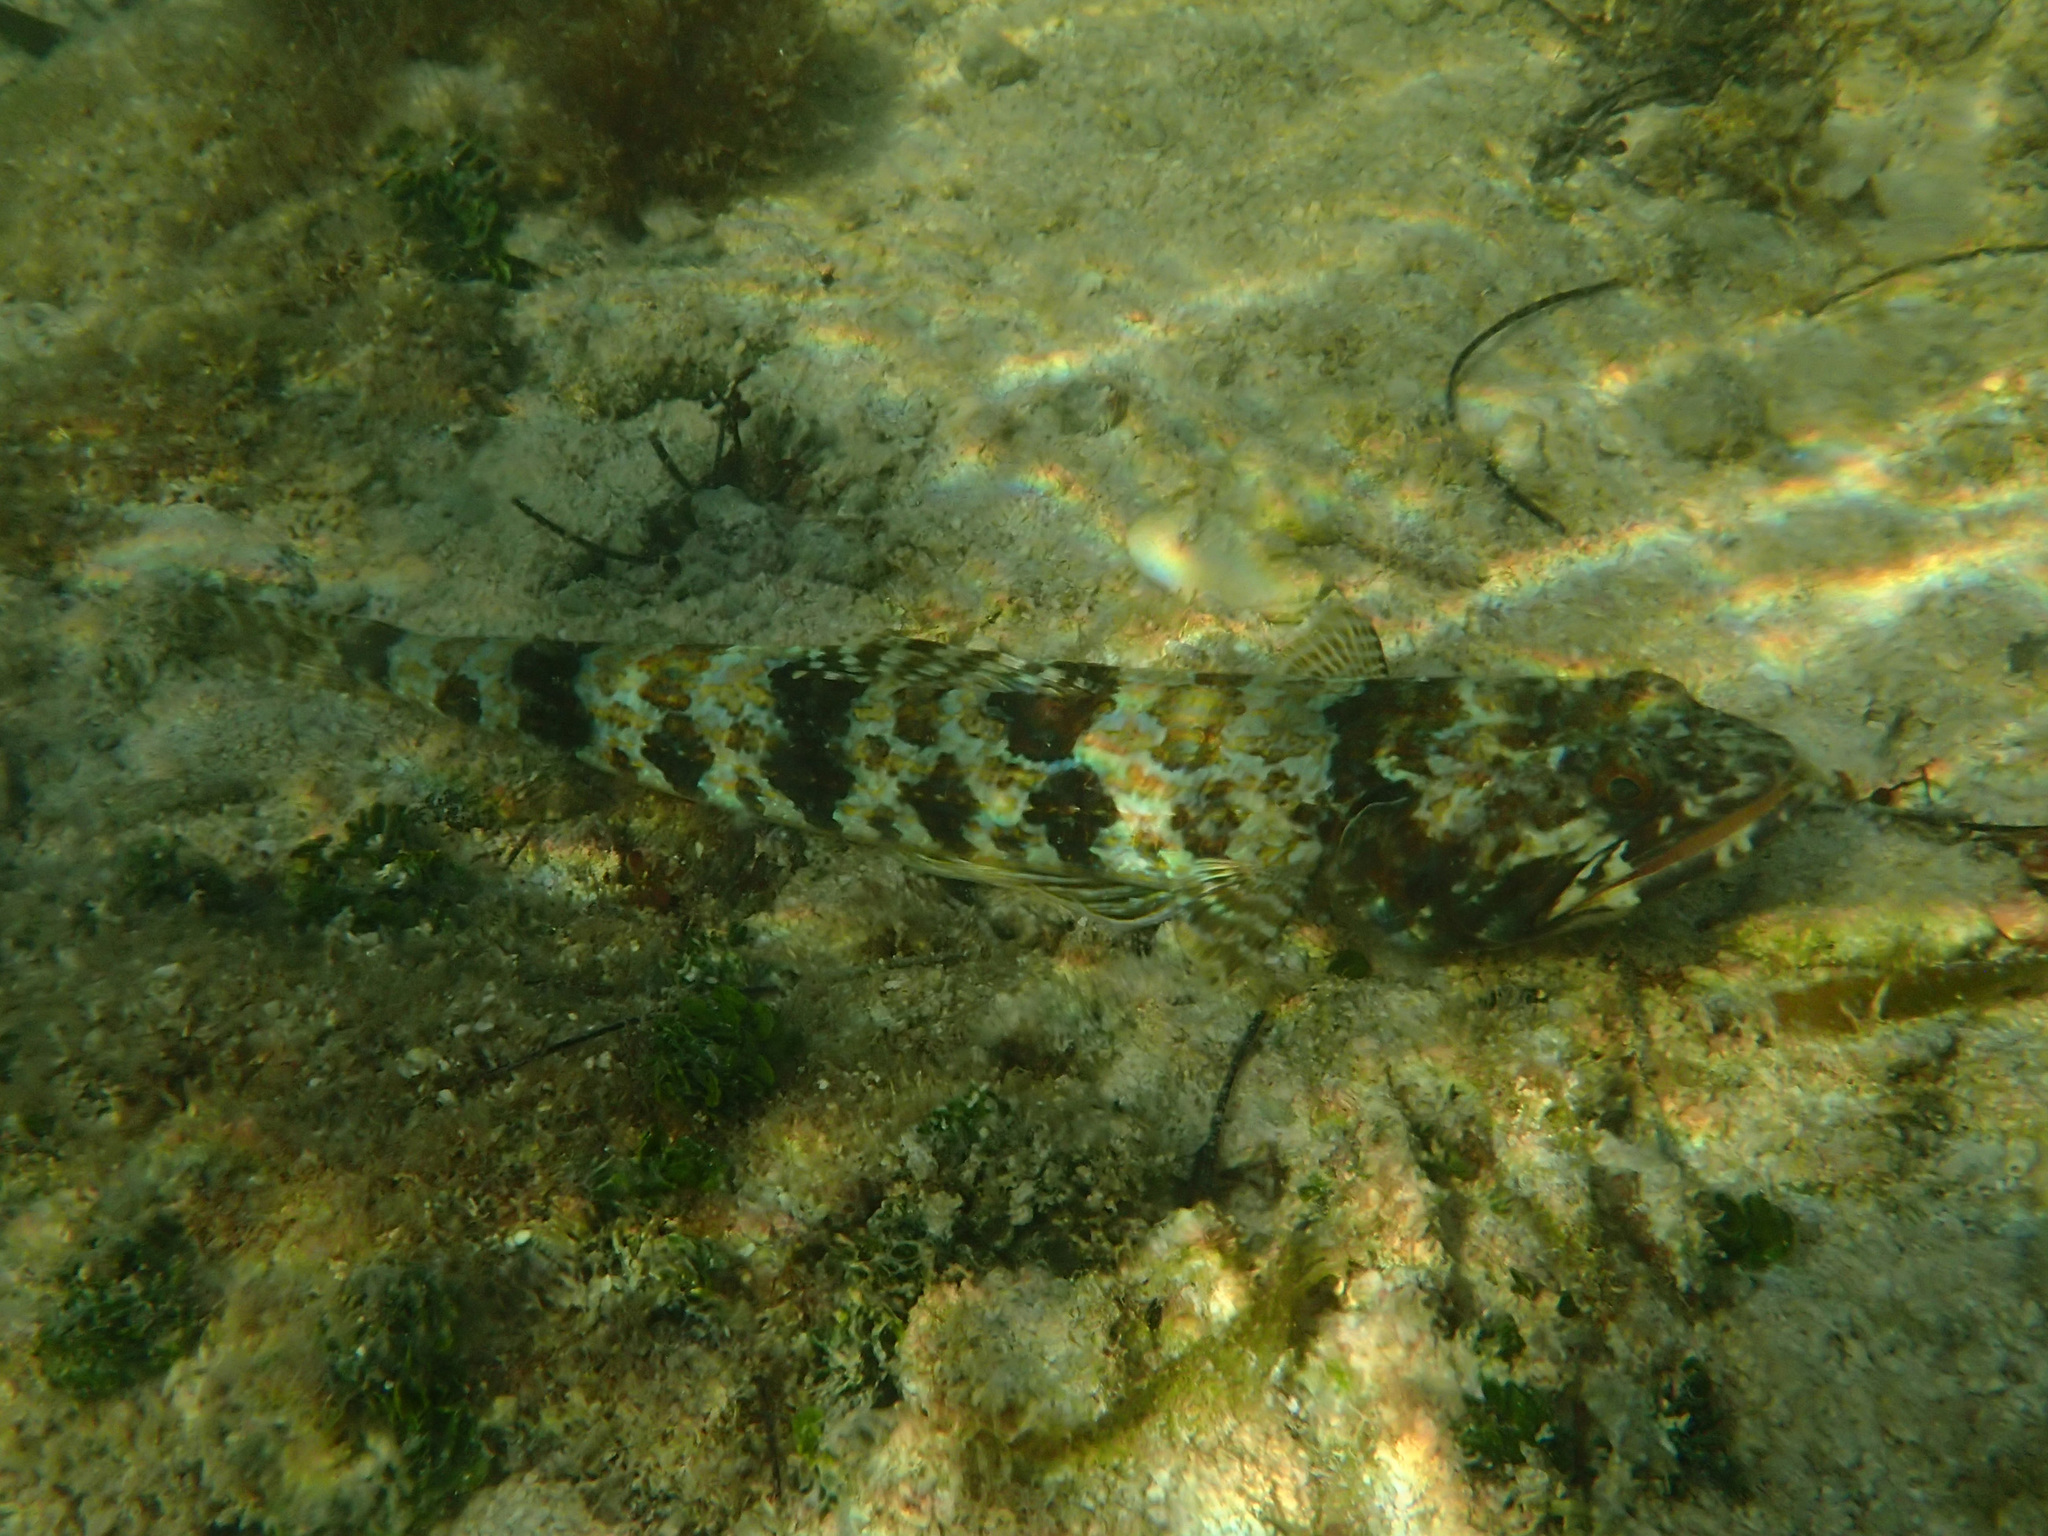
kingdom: Animalia
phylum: Chordata
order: Aulopiformes
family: Synodontidae
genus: Synodus
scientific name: Synodus intermedius
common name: Sand diver
